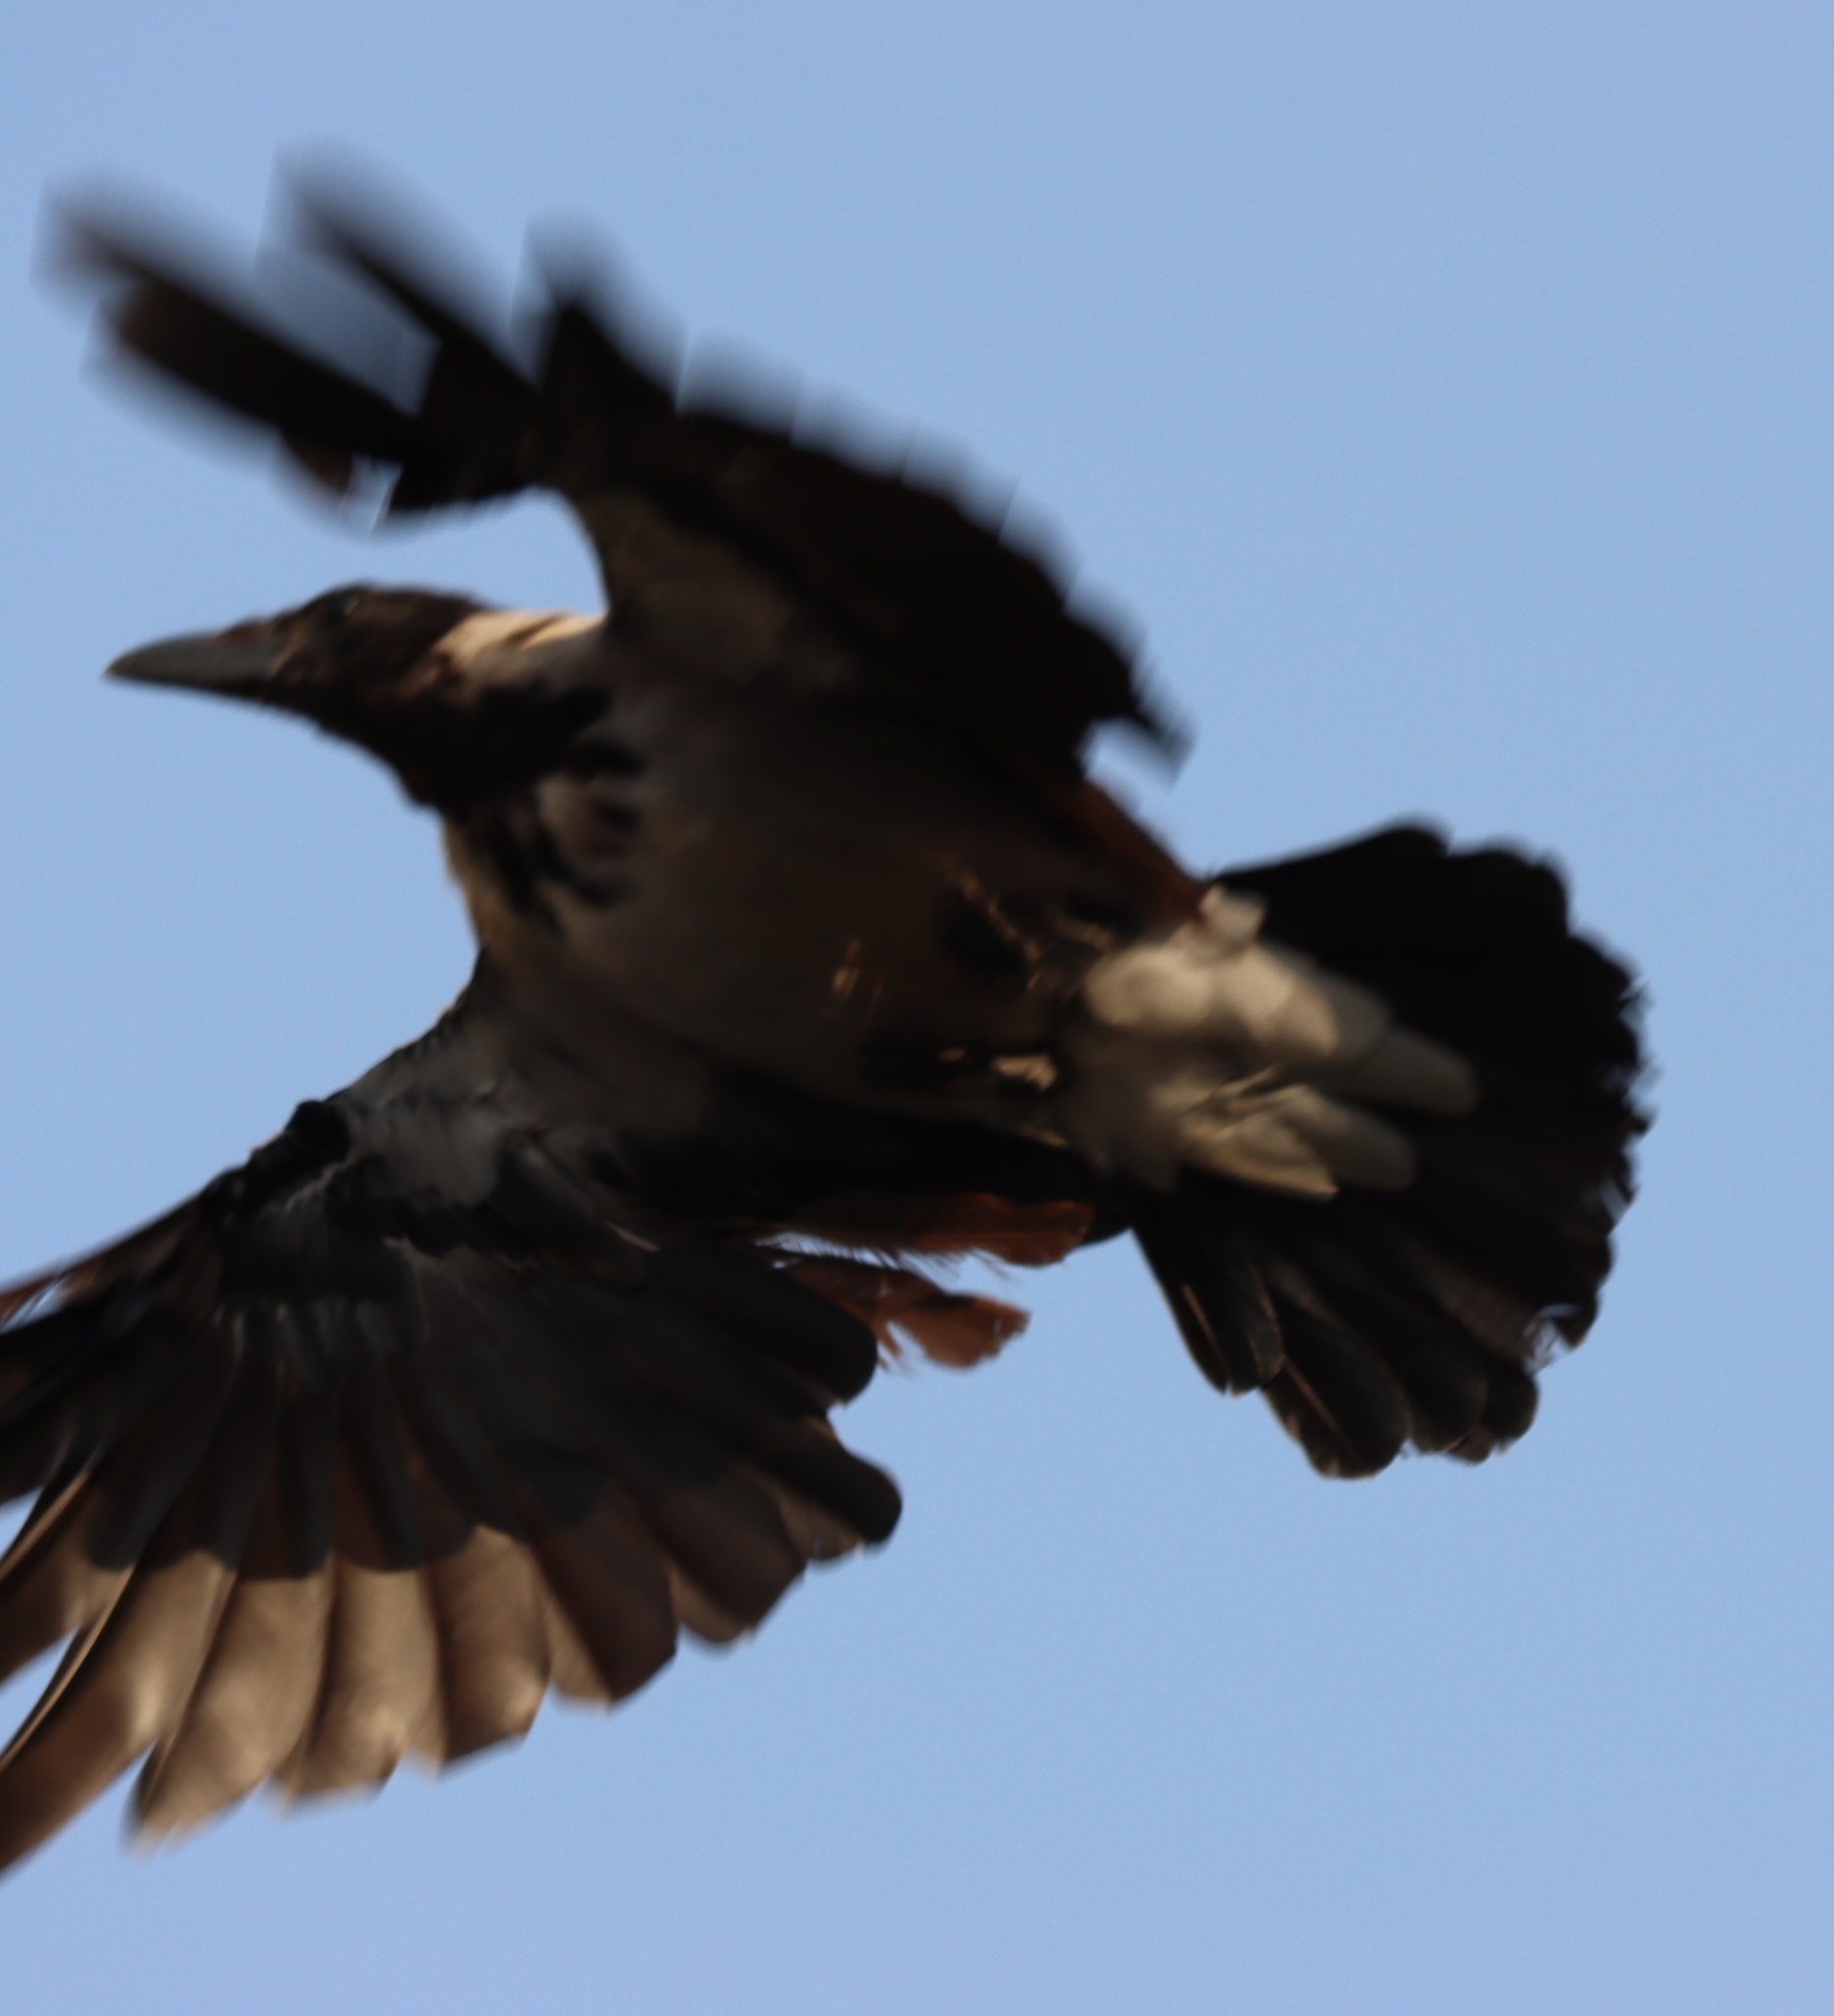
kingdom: Animalia
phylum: Chordata
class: Aves
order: Passeriformes
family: Corvidae
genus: Corvus
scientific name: Corvus cornix
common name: Hooded crow
